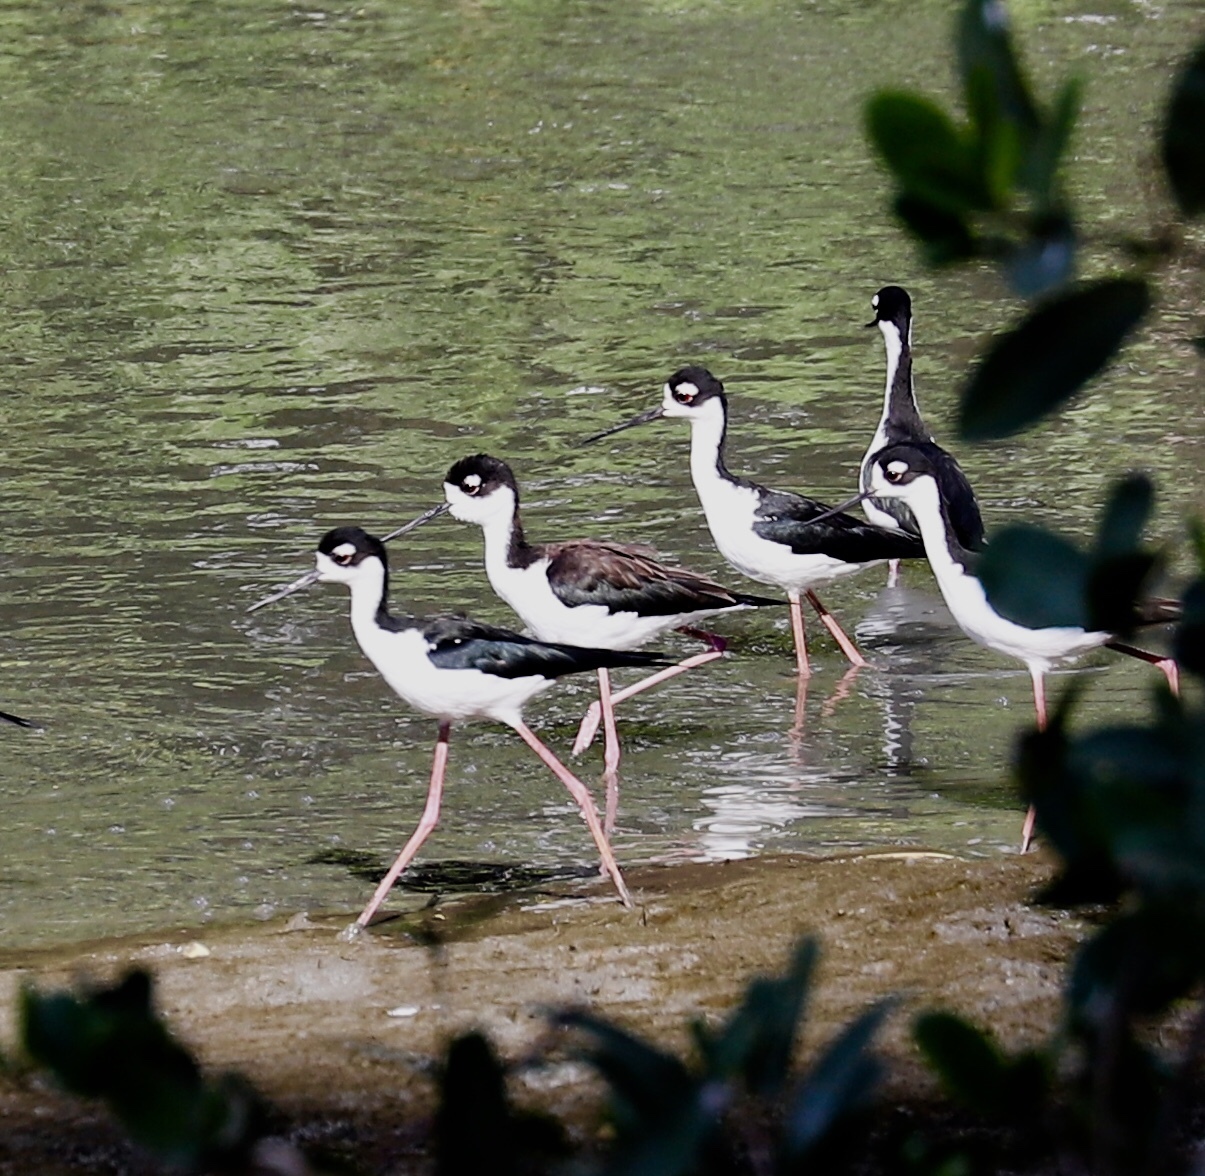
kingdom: Animalia
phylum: Chordata
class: Aves
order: Charadriiformes
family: Recurvirostridae
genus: Himantopus
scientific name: Himantopus mexicanus
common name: Black-necked stilt
